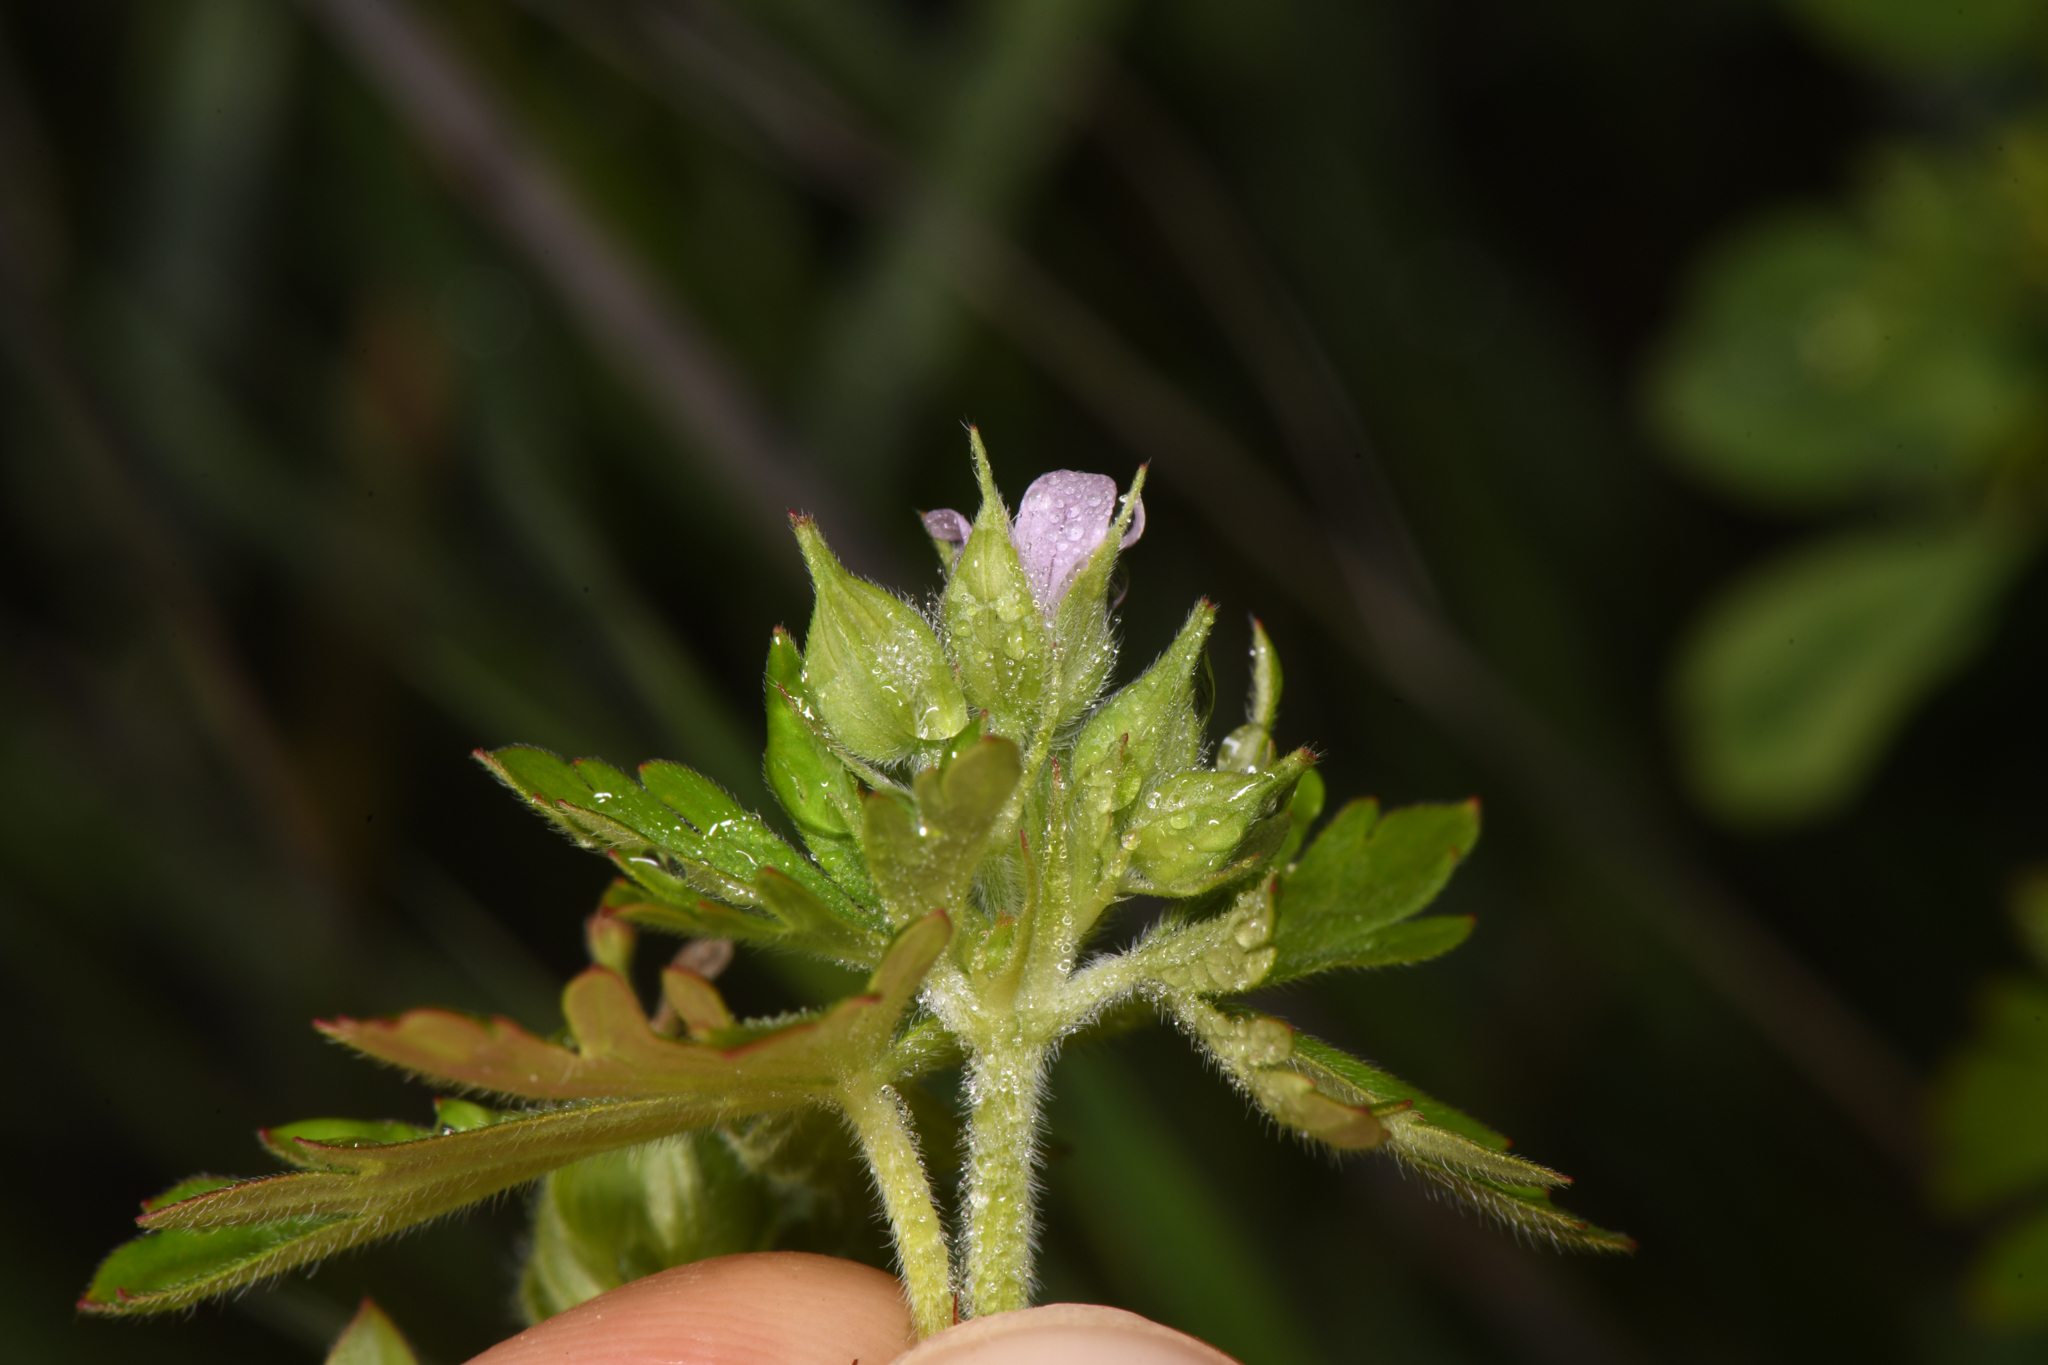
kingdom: Plantae
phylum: Tracheophyta
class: Magnoliopsida
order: Geraniales
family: Geraniaceae
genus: Geranium
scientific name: Geranium carolinianum
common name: Carolina crane's-bill
